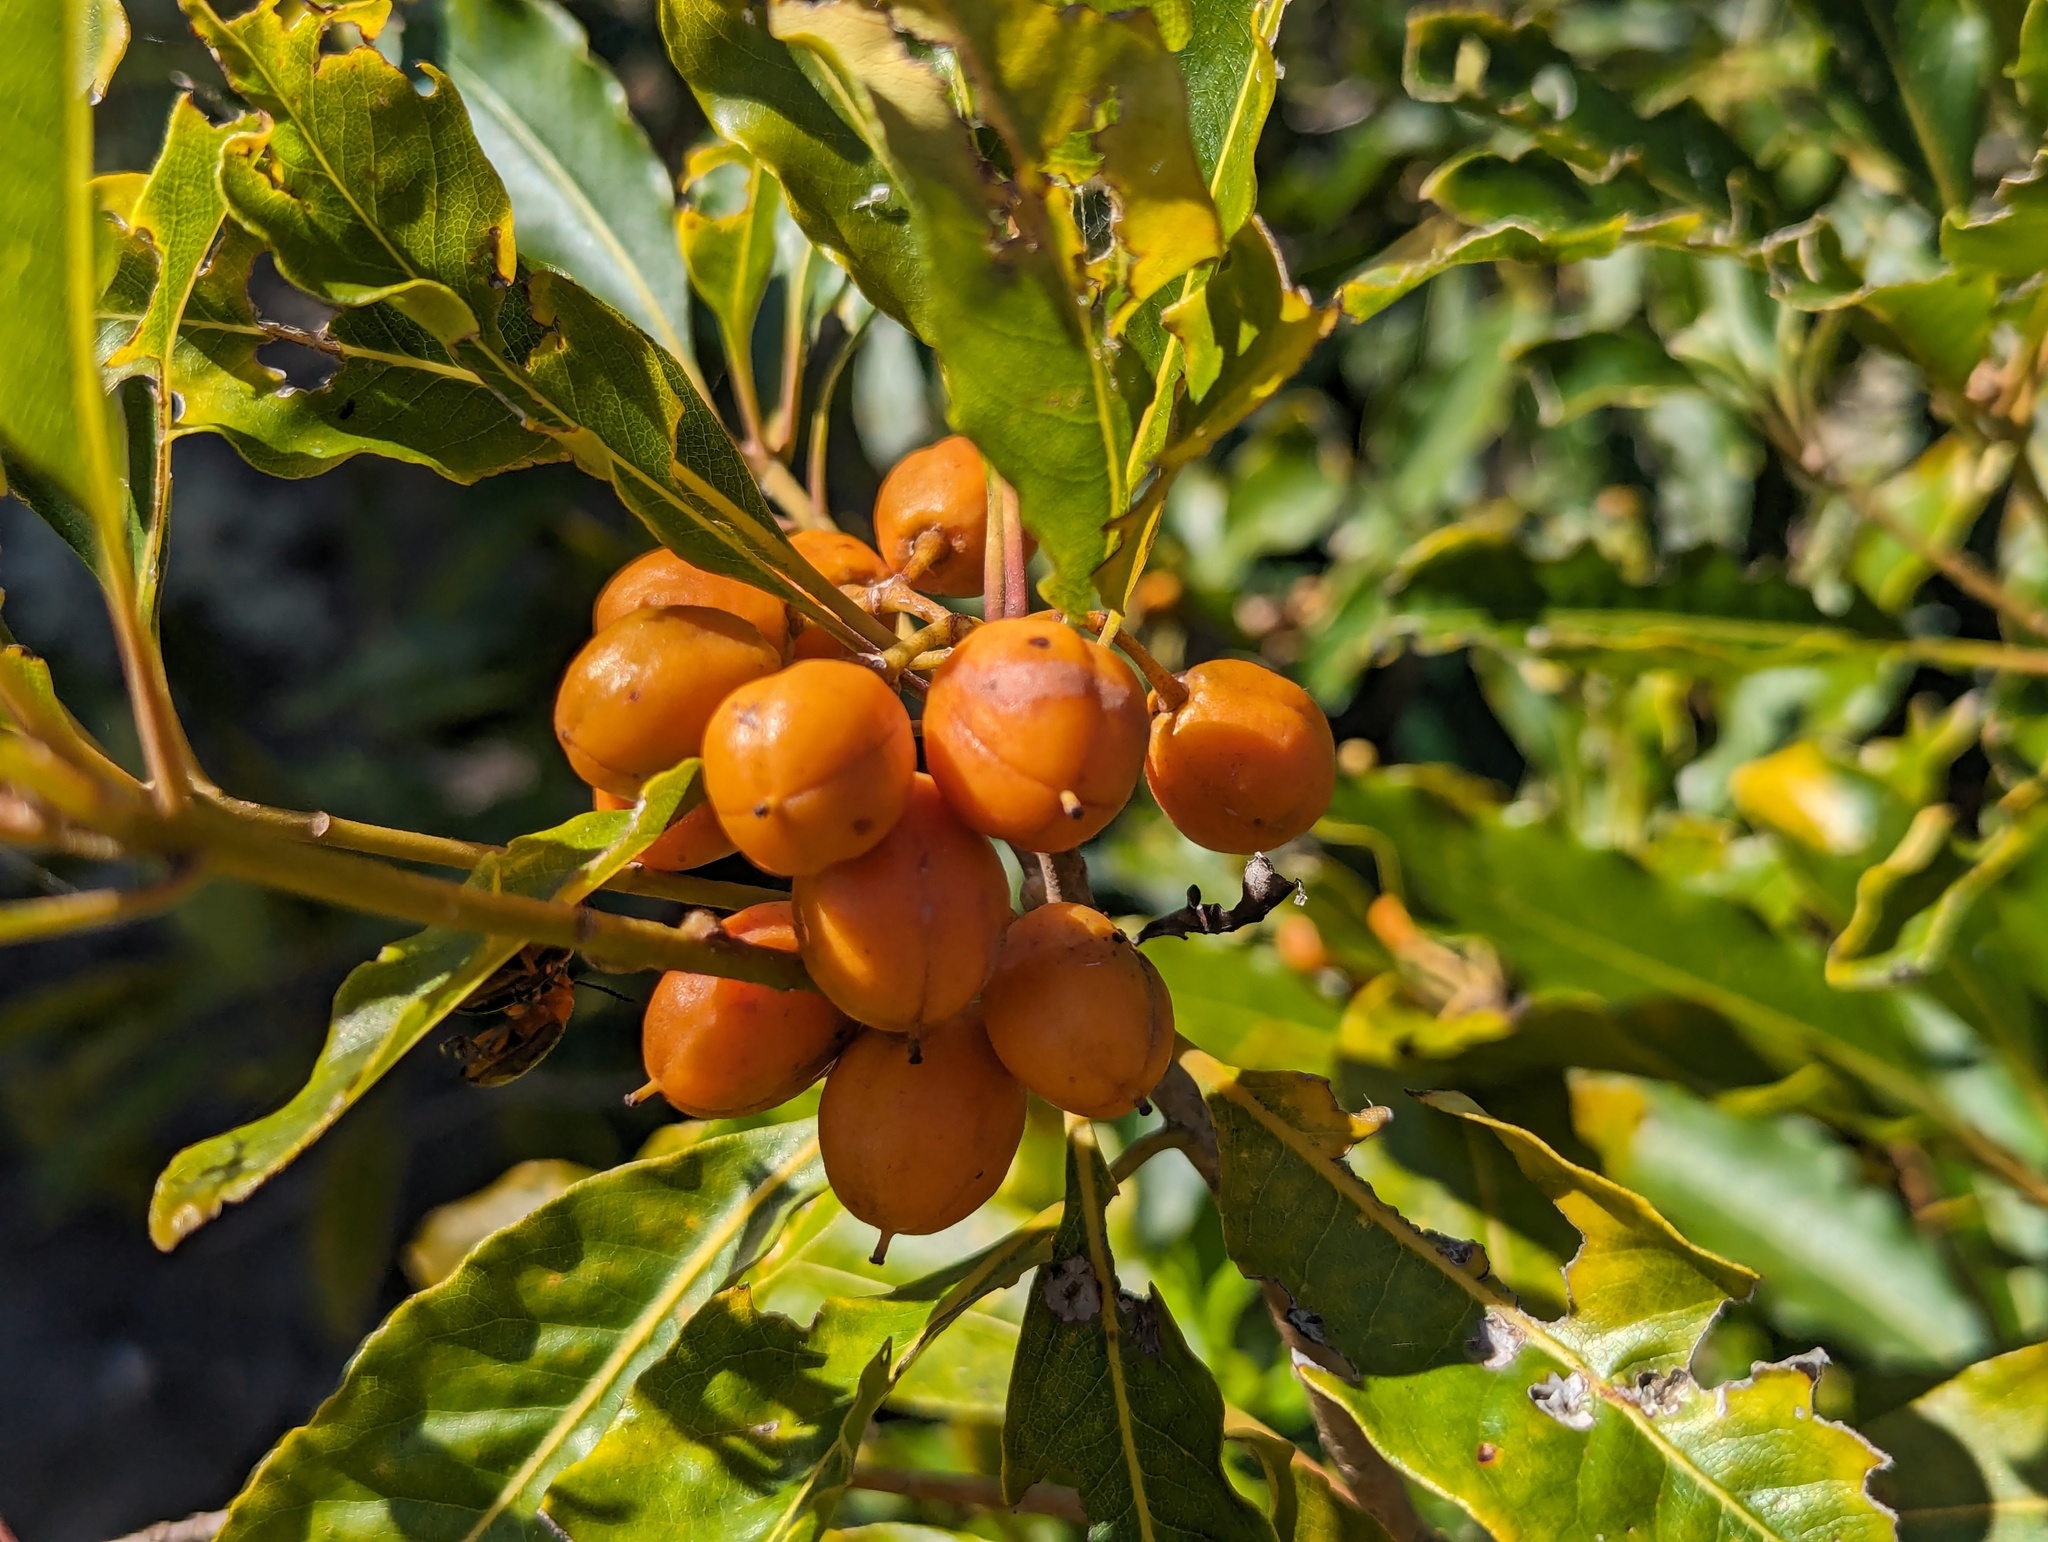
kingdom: Plantae
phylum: Tracheophyta
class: Magnoliopsida
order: Apiales
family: Pittosporaceae
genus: Pittosporum
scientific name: Pittosporum undulatum
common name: Australian cheesewood
